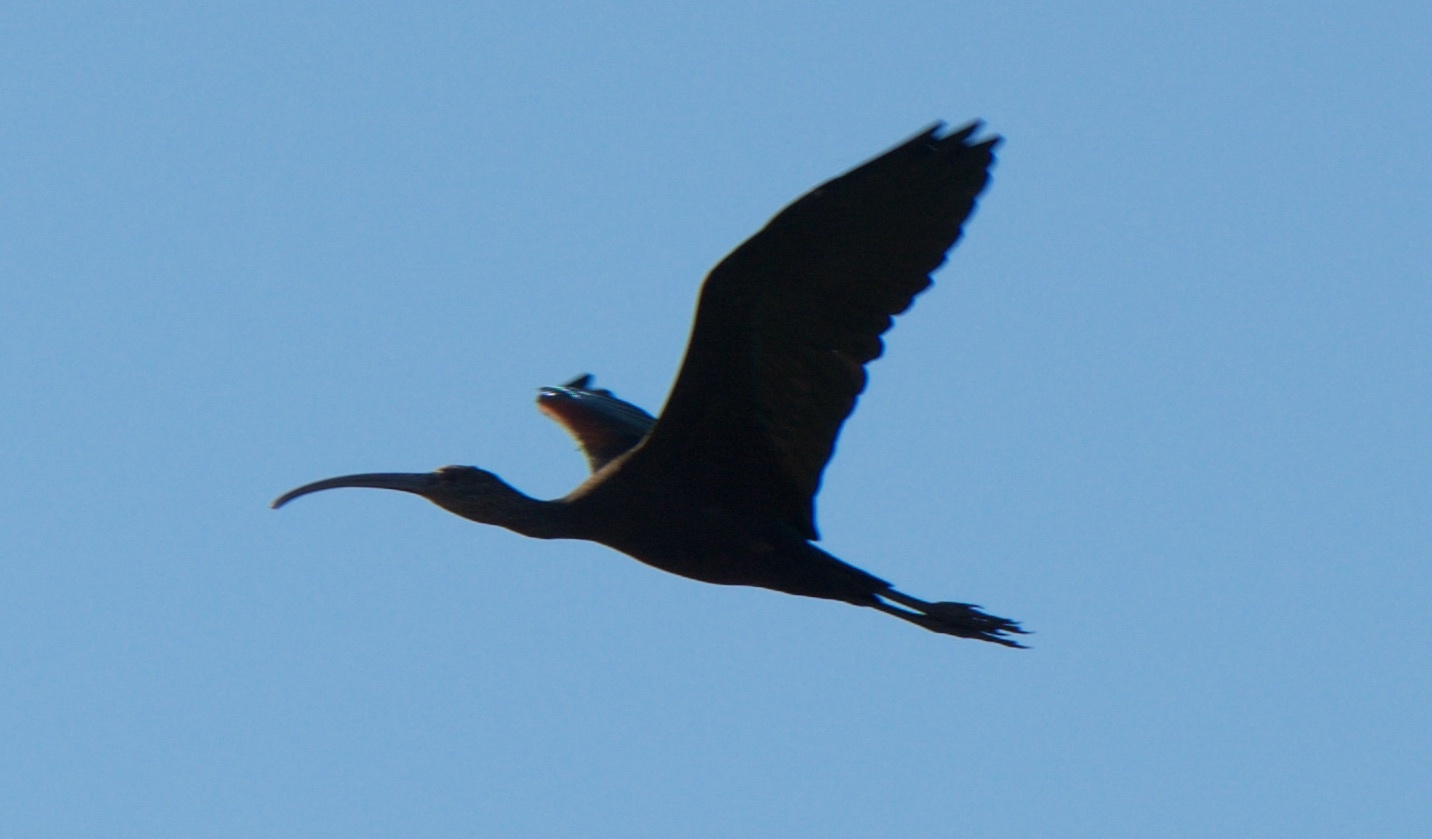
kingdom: Animalia
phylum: Chordata
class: Aves
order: Pelecaniformes
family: Threskiornithidae
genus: Plegadis
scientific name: Plegadis chihi
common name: White-faced ibis
